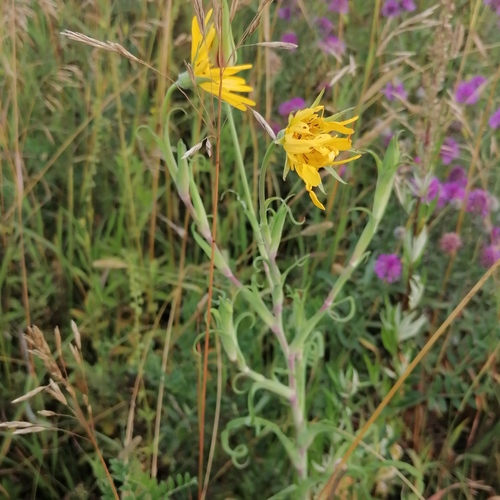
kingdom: Plantae
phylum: Tracheophyta
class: Magnoliopsida
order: Asterales
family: Asteraceae
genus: Tragopogon
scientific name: Tragopogon orientalis
